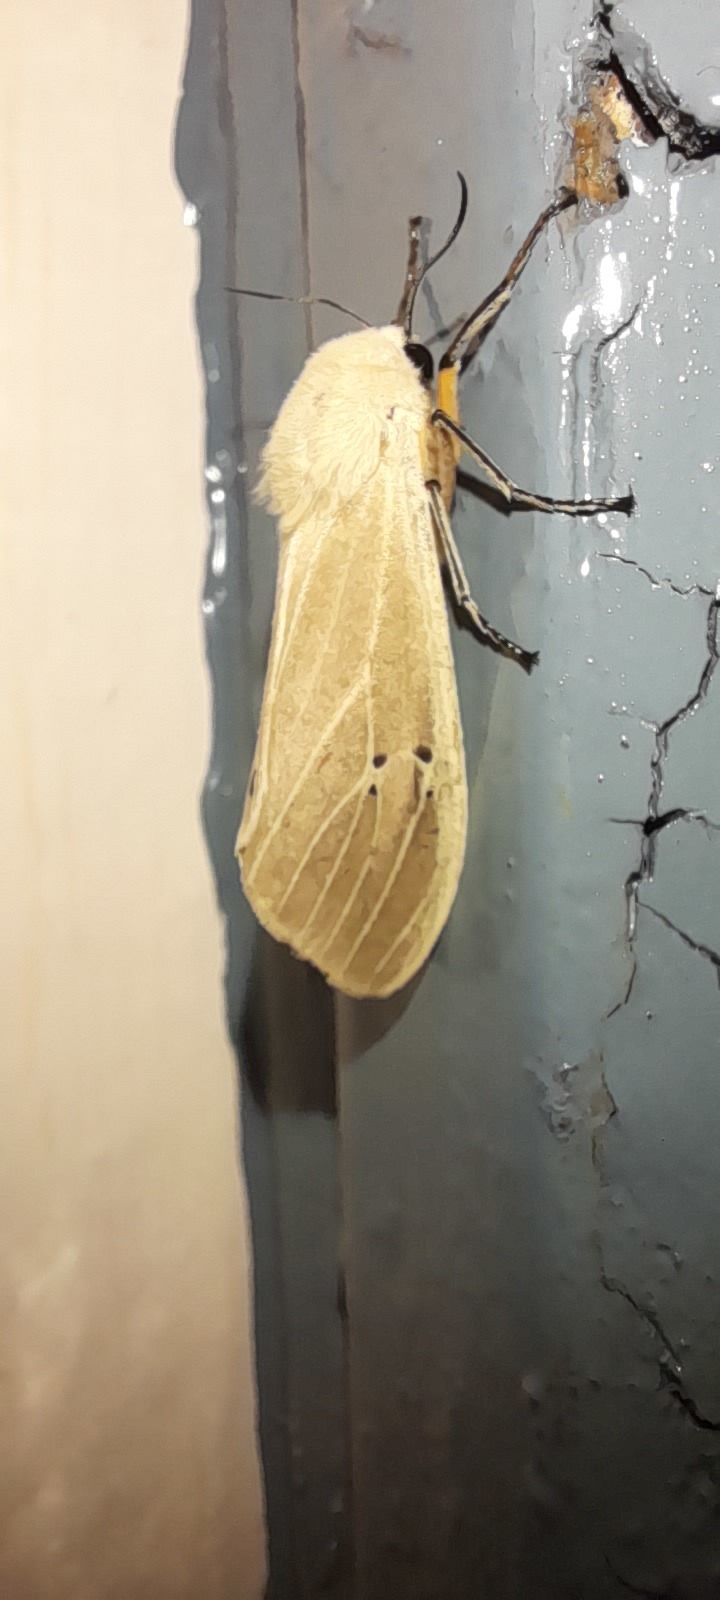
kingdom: Animalia
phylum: Arthropoda
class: Insecta
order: Lepidoptera
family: Erebidae
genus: Creatonotos
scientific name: Creatonotos transiens
